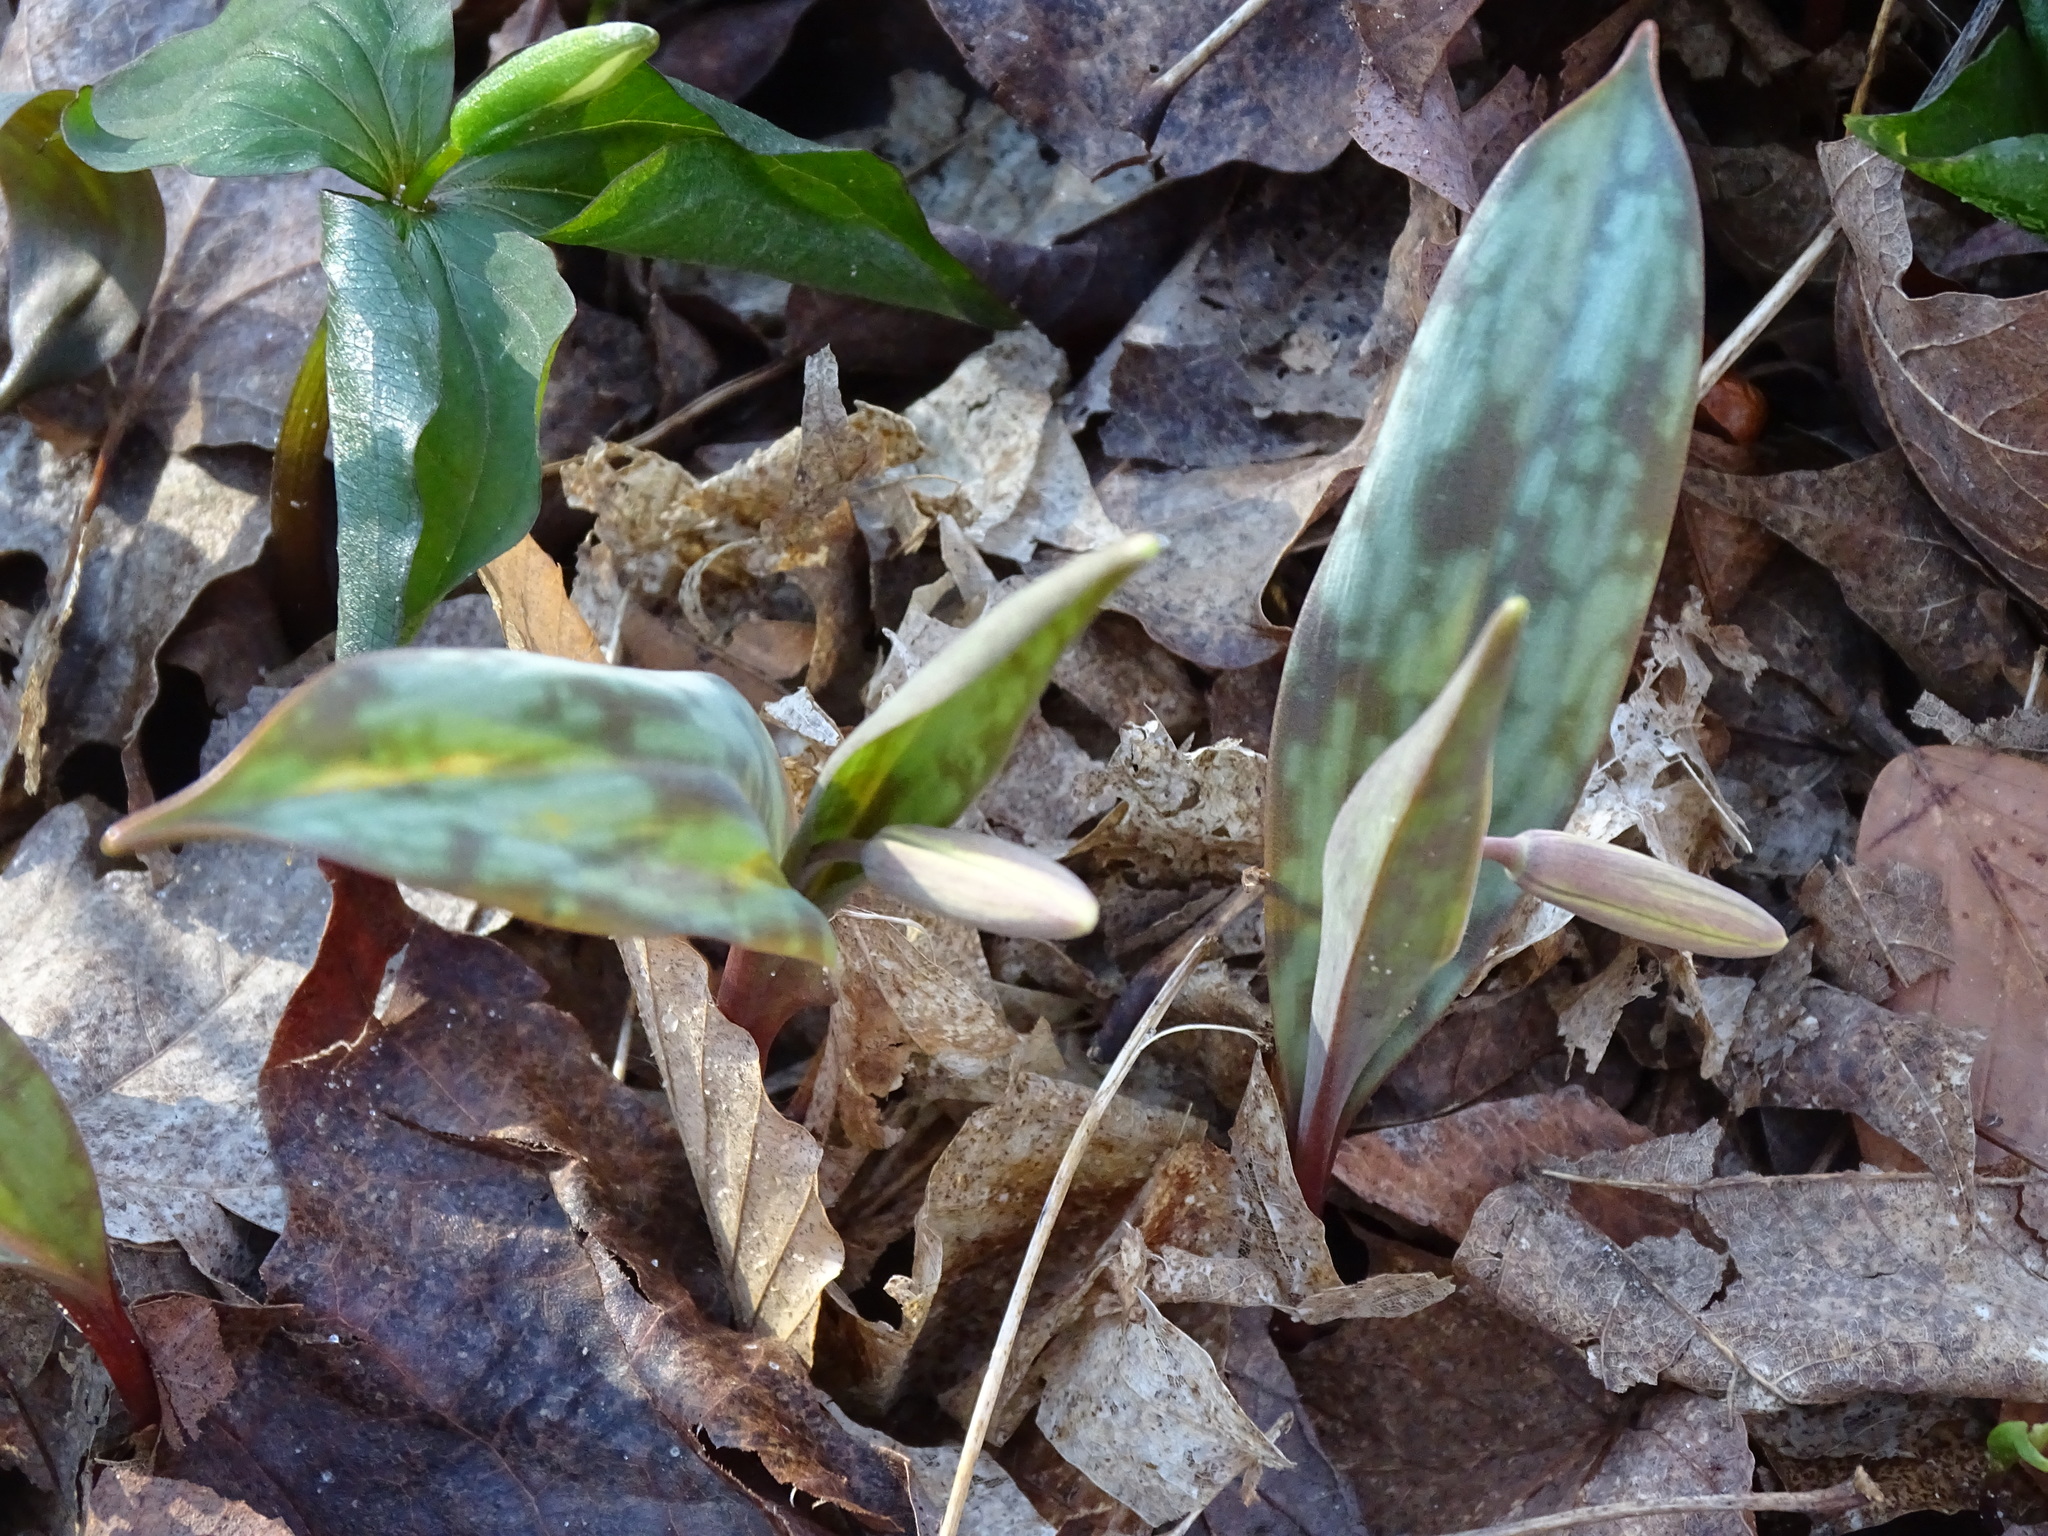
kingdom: Plantae
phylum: Tracheophyta
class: Liliopsida
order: Liliales
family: Liliaceae
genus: Erythronium
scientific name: Erythronium americanum
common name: Yellow adder's-tongue
